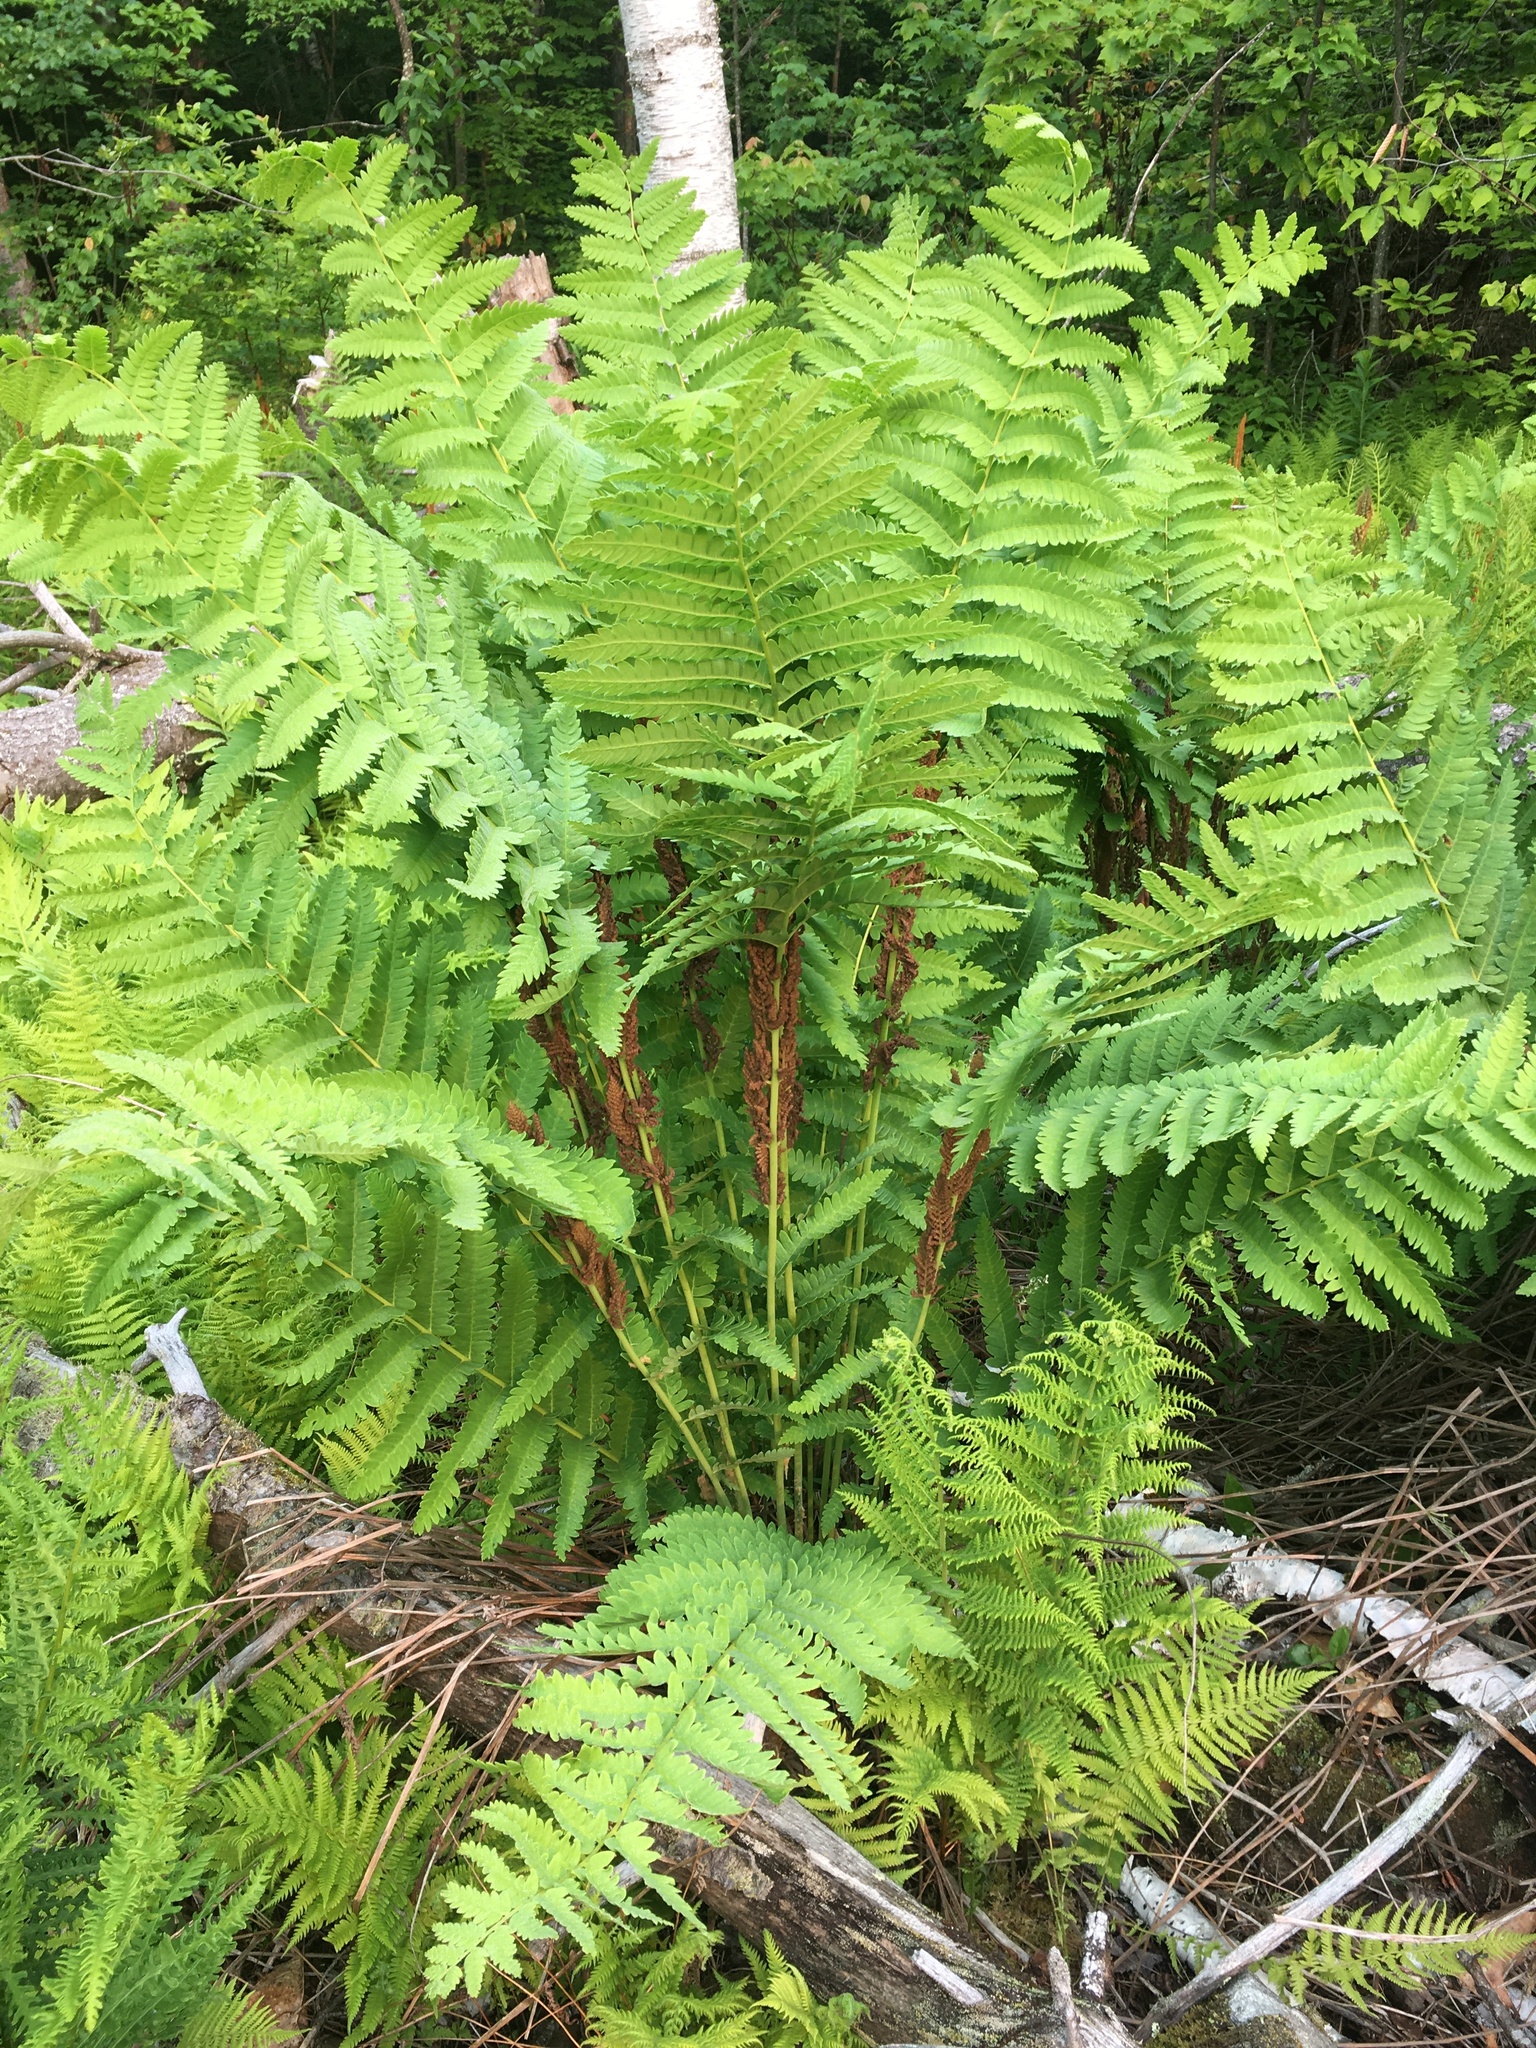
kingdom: Plantae
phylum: Tracheophyta
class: Polypodiopsida
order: Osmundales
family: Osmundaceae
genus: Claytosmunda
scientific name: Claytosmunda claytoniana
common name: Clayton's fern
